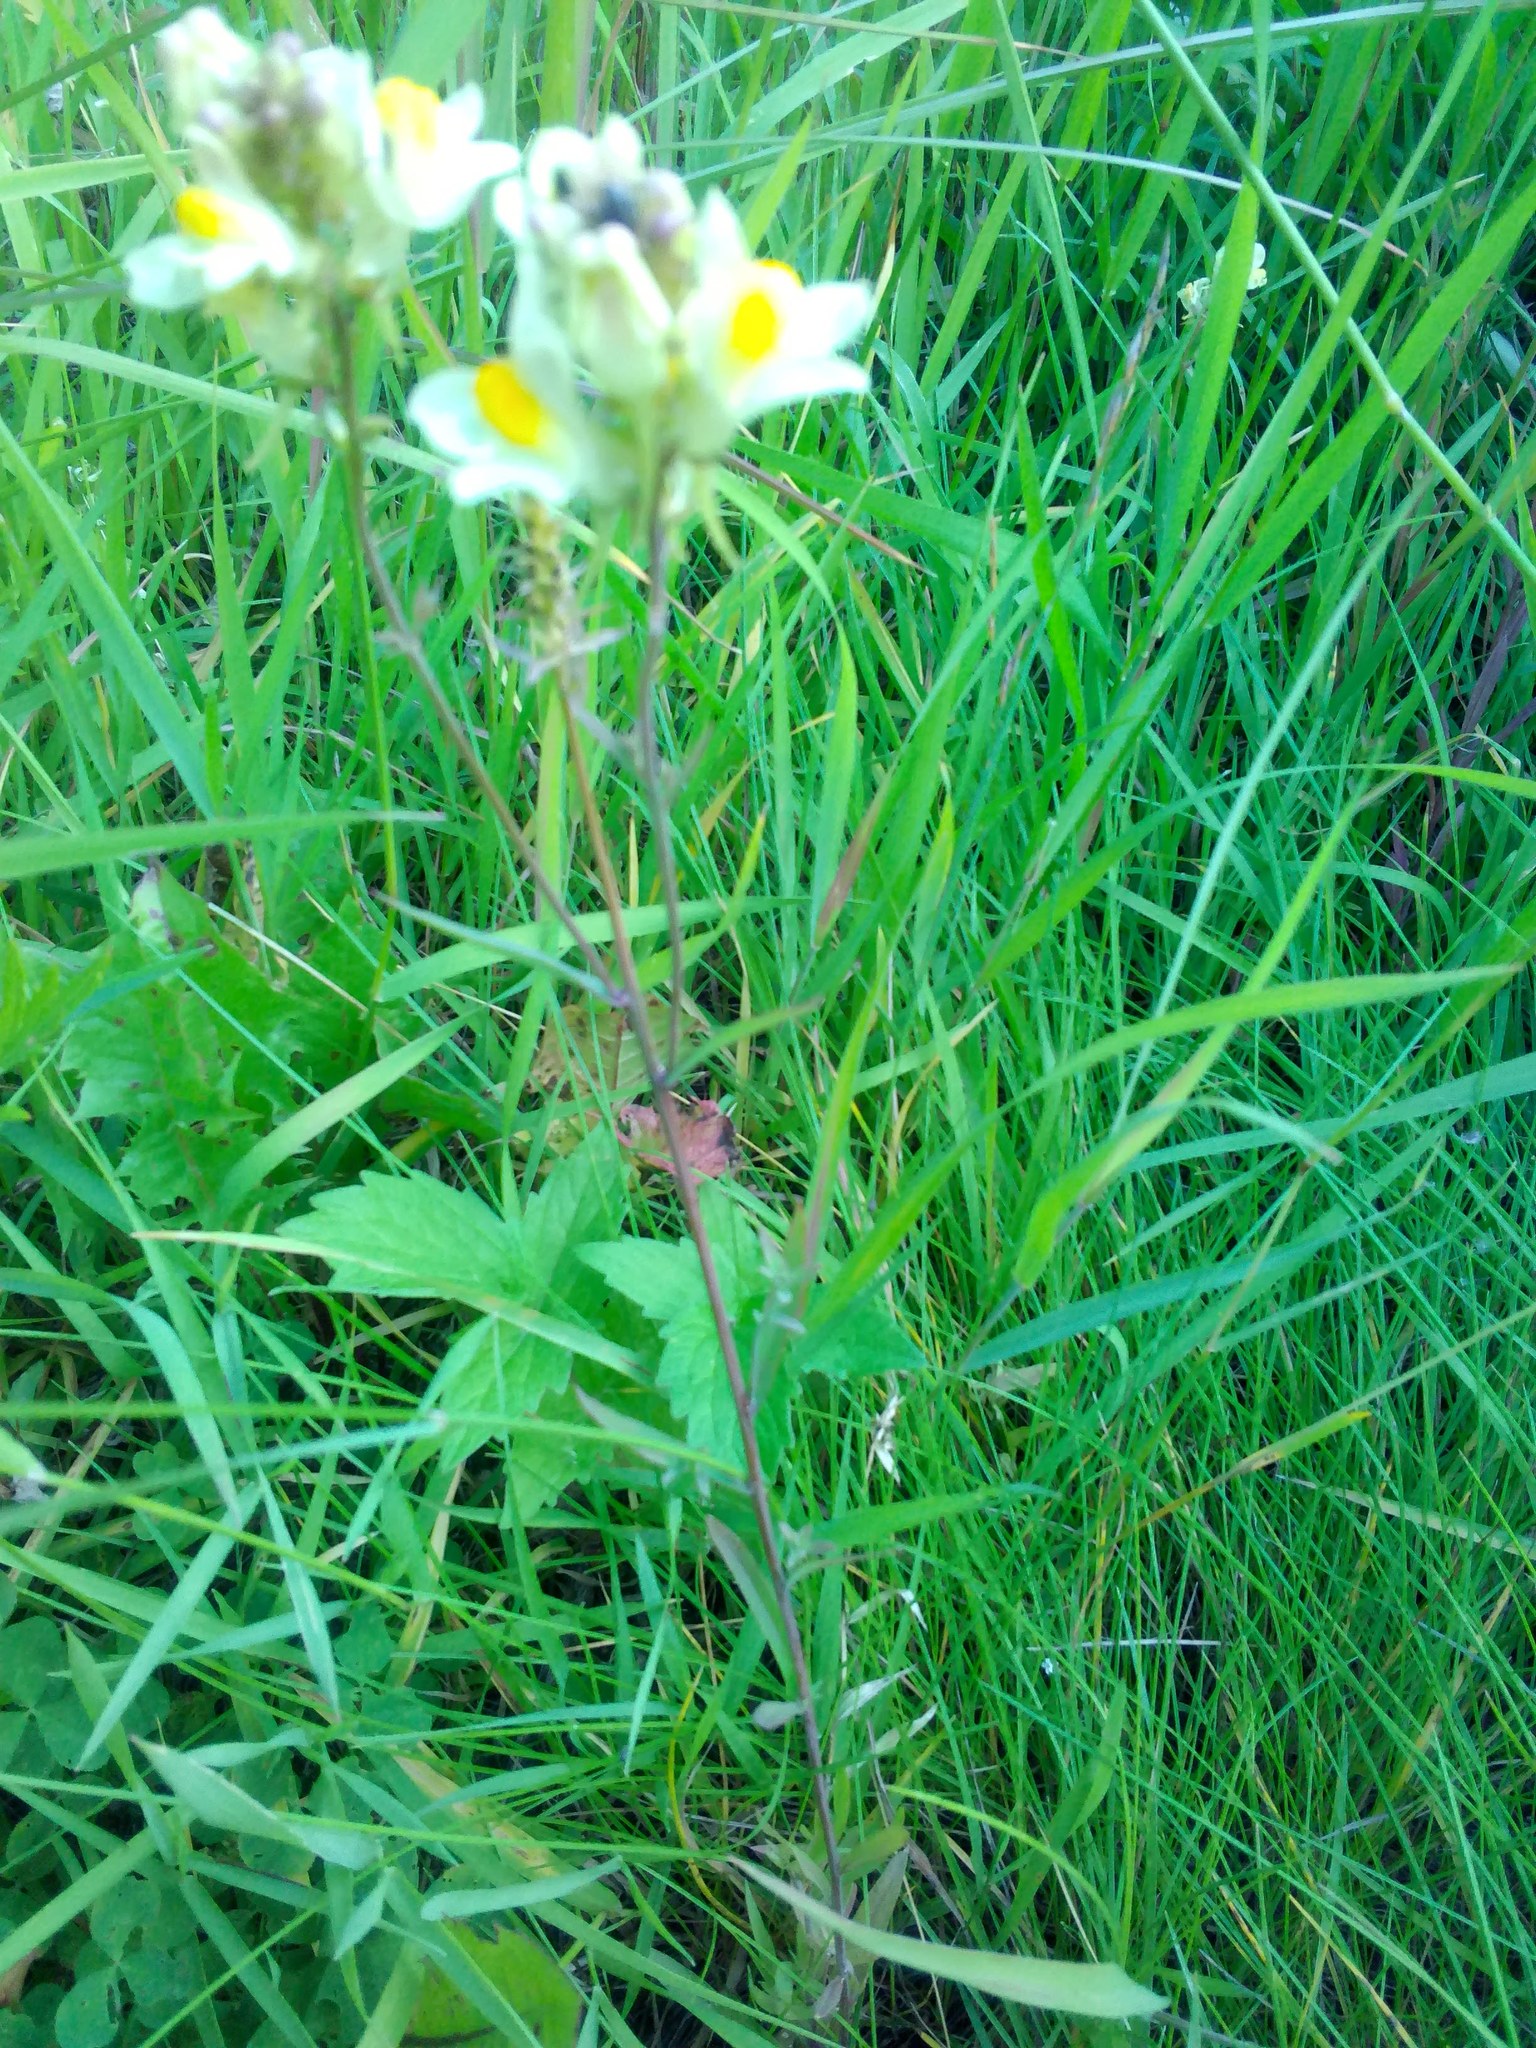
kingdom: Plantae
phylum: Tracheophyta
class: Magnoliopsida
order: Lamiales
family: Plantaginaceae
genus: Linaria
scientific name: Linaria vulgaris
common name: Butter and eggs
